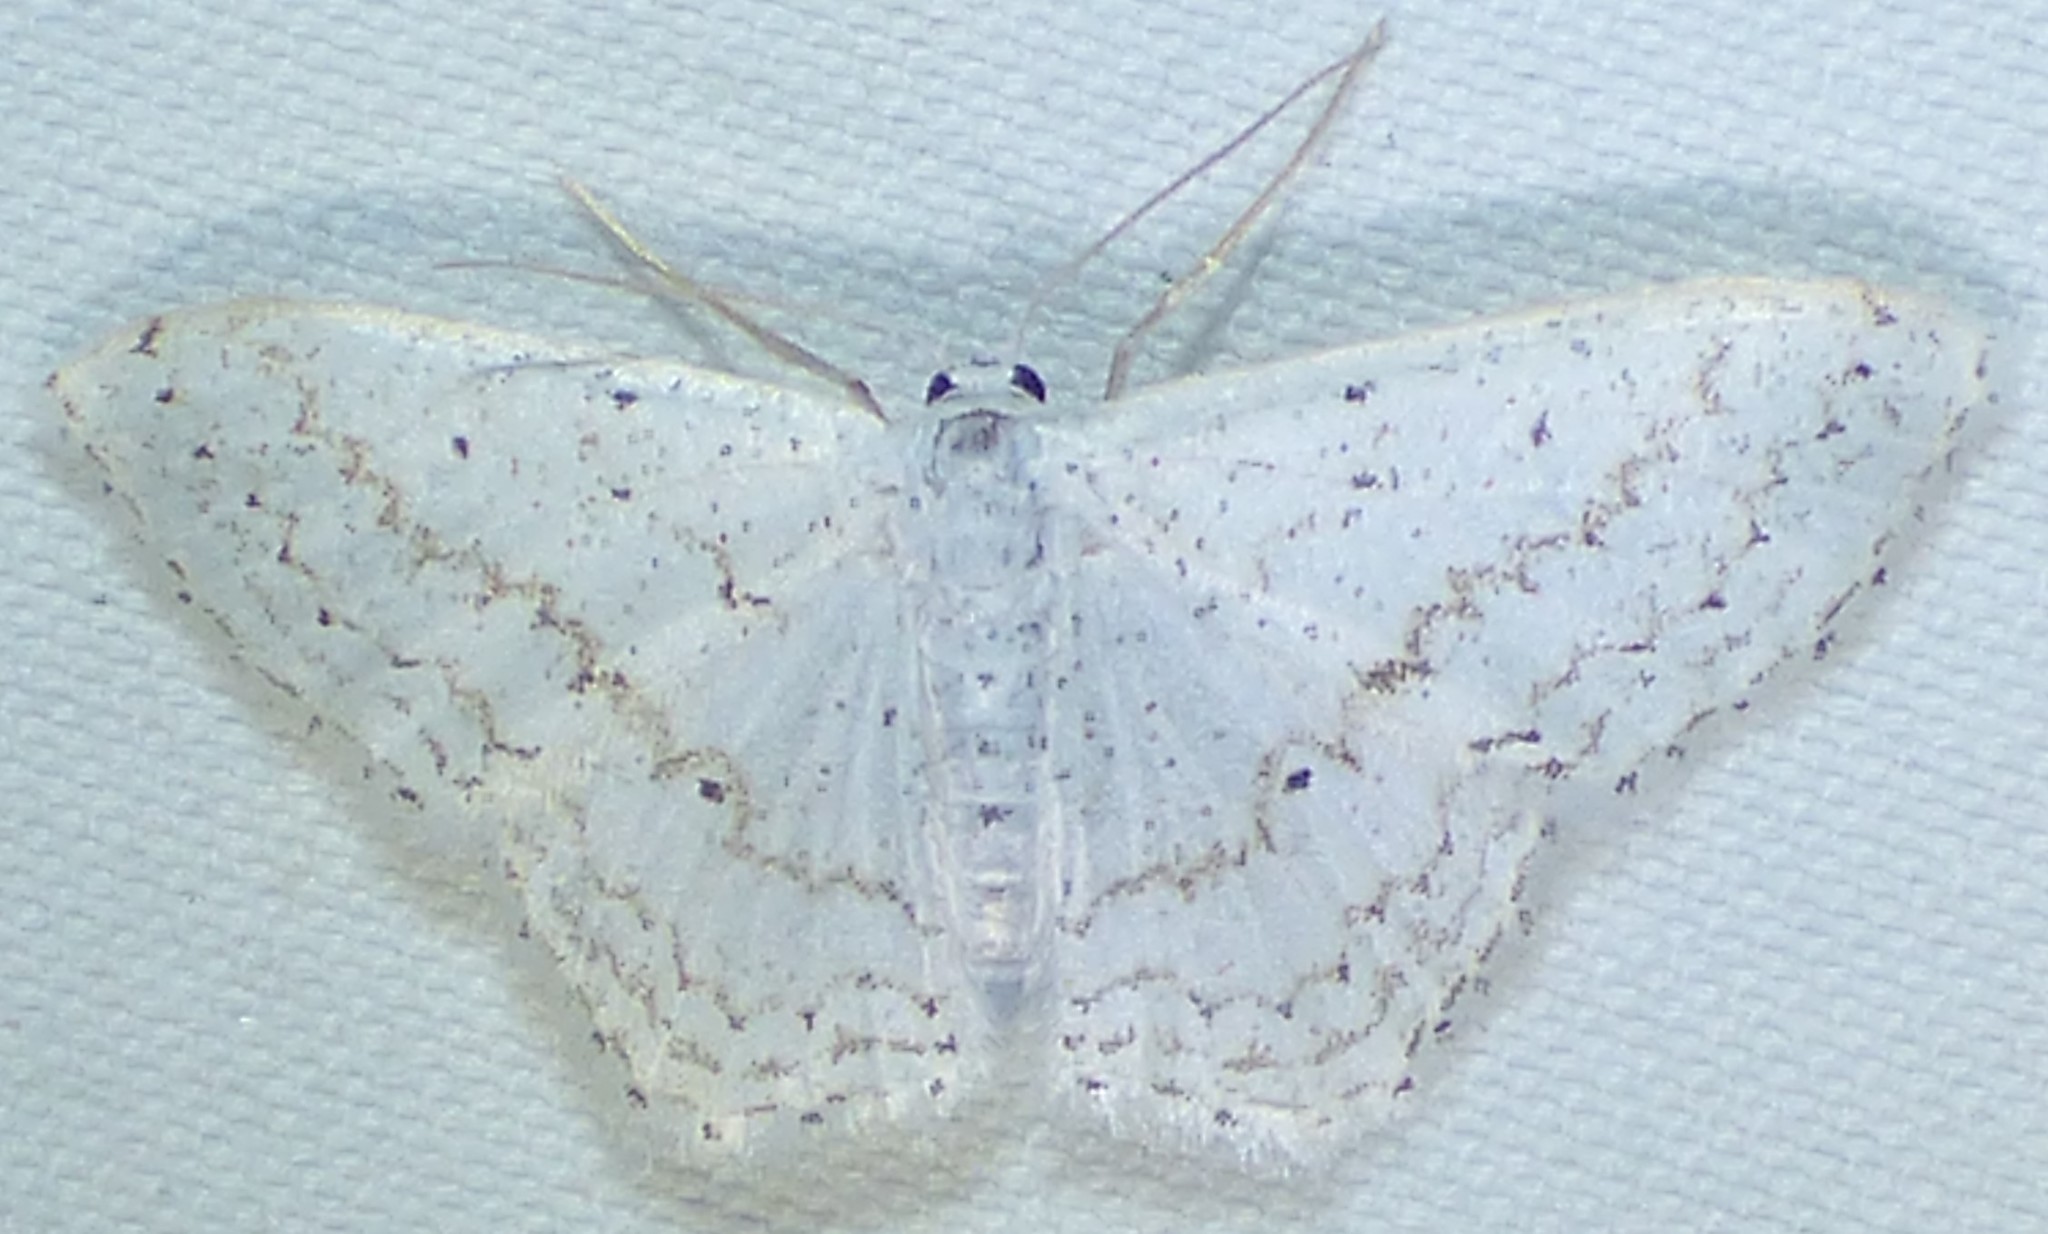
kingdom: Animalia
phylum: Arthropoda
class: Insecta
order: Lepidoptera
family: Geometridae
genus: Idaea
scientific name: Idaea tacturata
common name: Dot-lined wave
